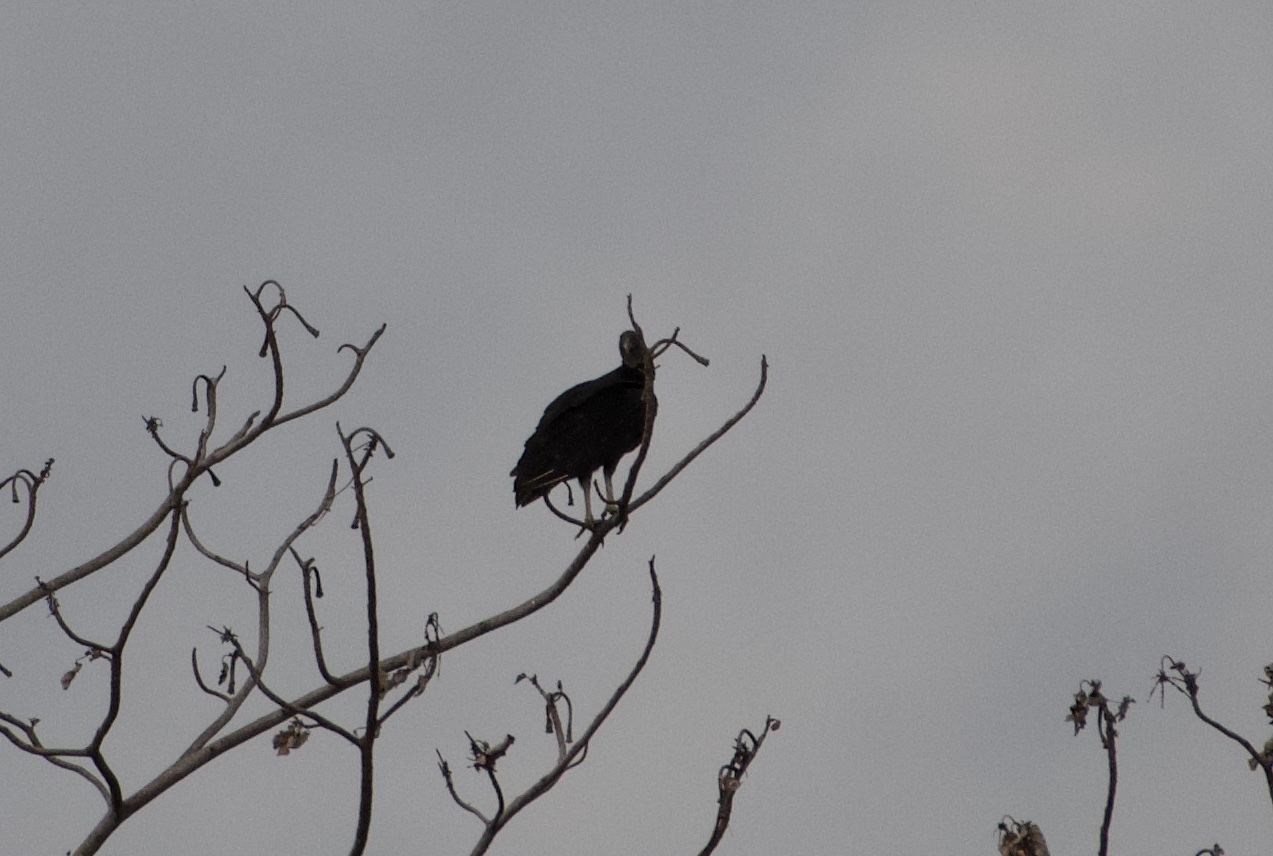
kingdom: Animalia
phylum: Chordata
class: Aves
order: Accipitriformes
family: Cathartidae
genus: Coragyps
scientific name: Coragyps atratus
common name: Black vulture
